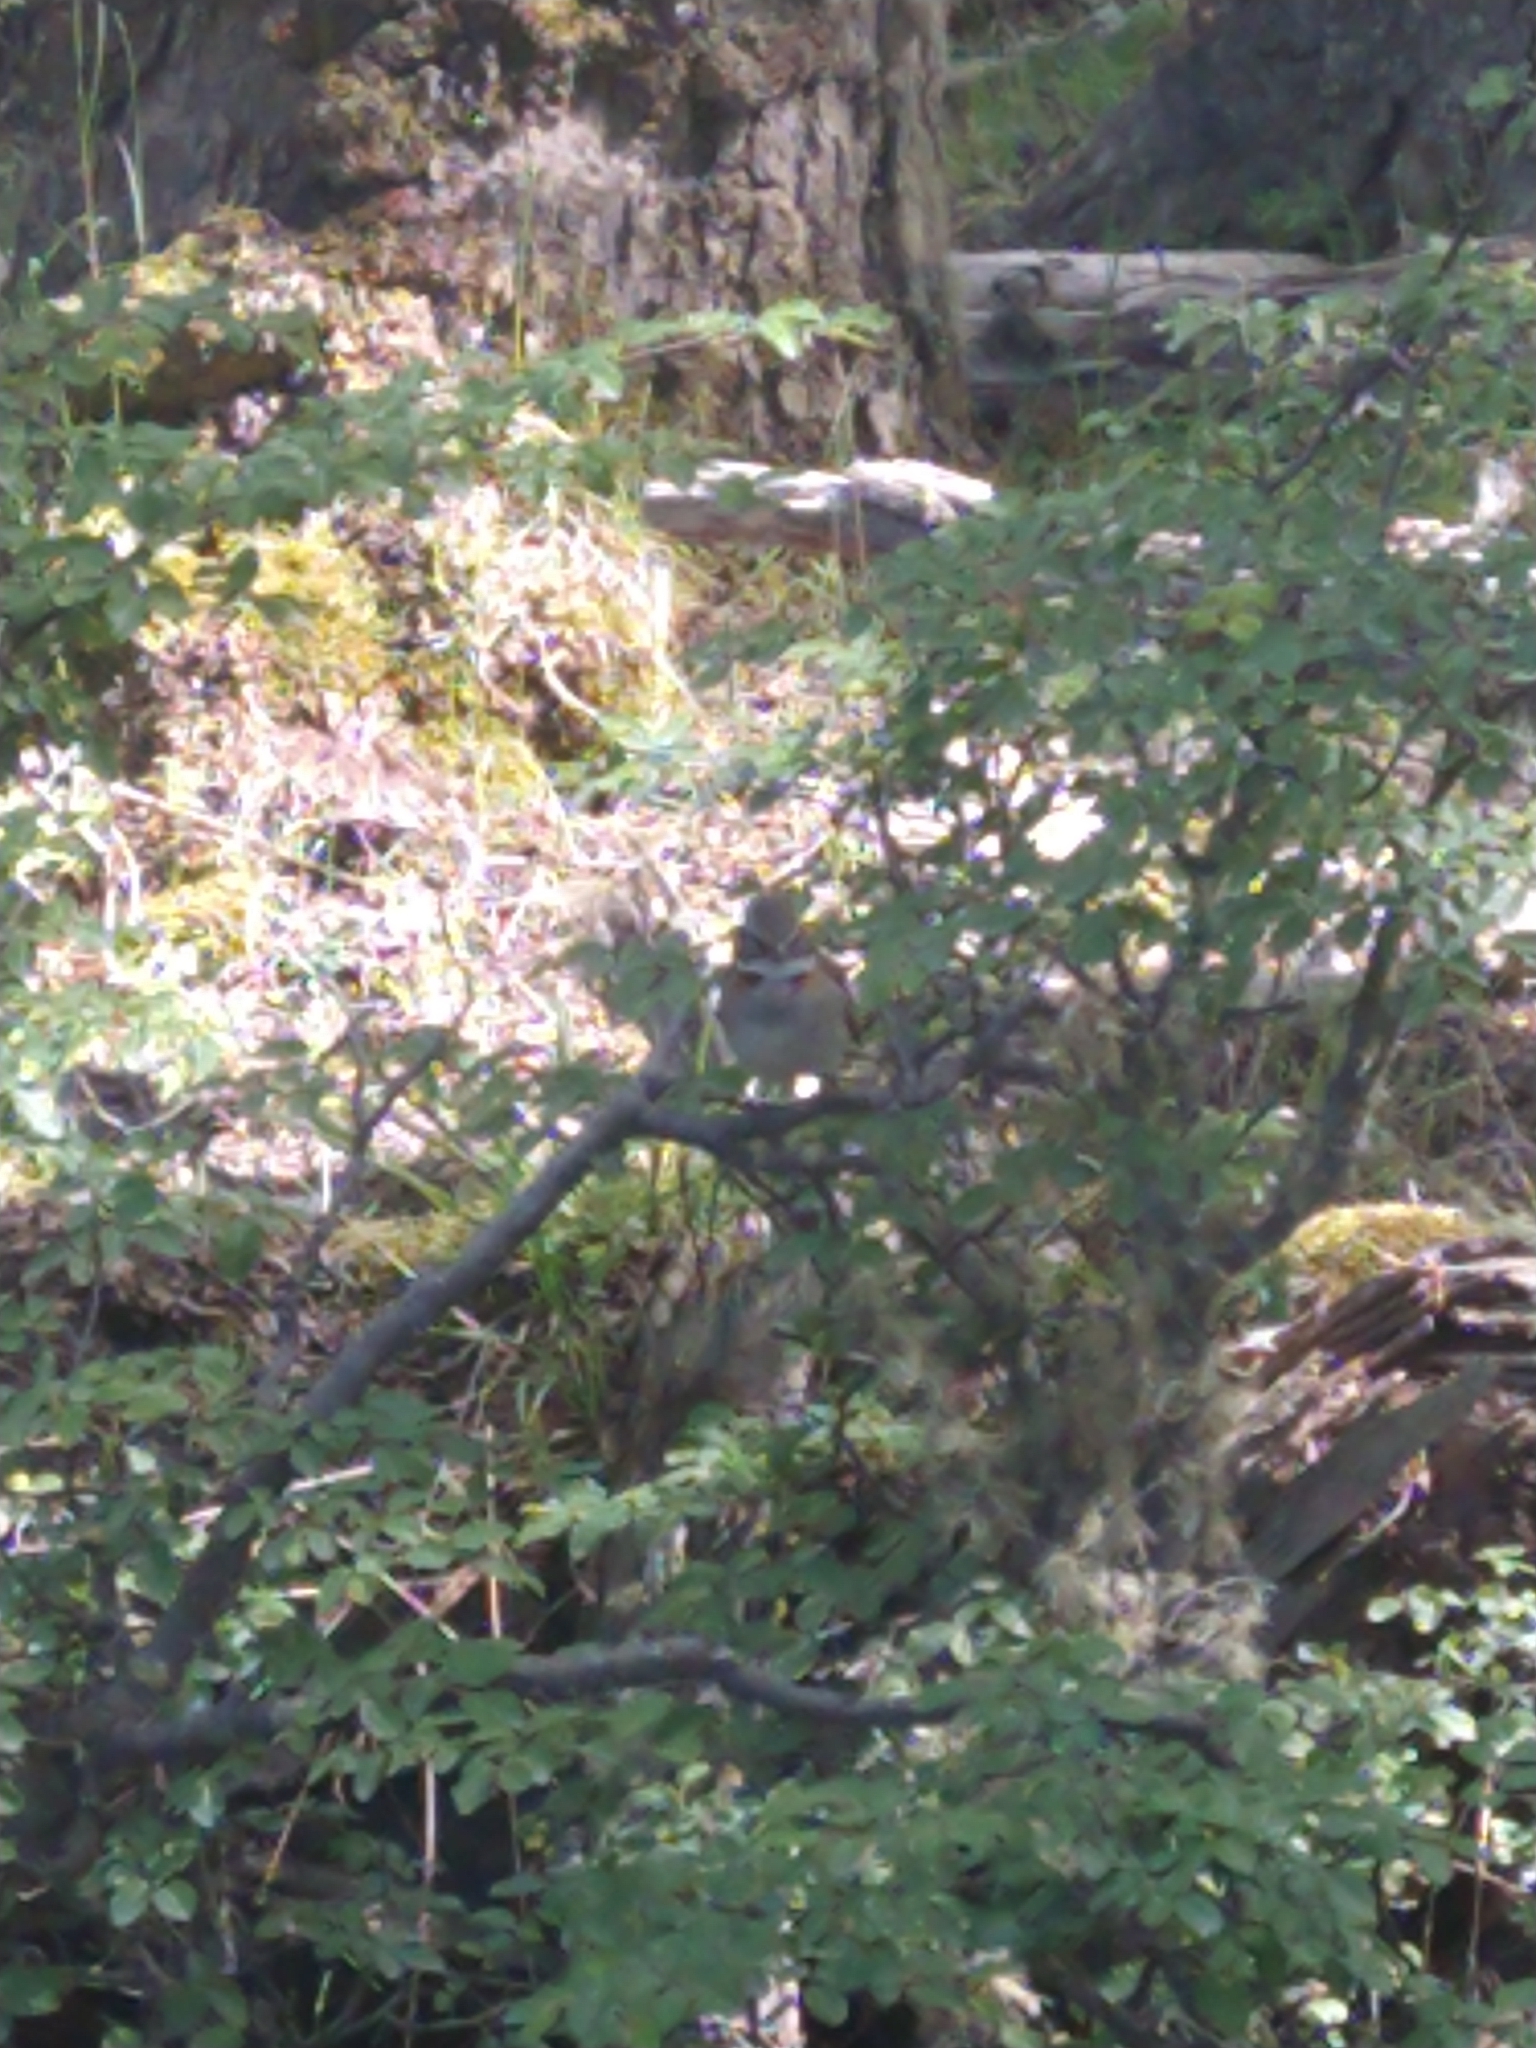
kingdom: Animalia
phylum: Chordata
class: Aves
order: Passeriformes
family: Passerellidae
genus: Zonotrichia
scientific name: Zonotrichia capensis
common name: Rufous-collared sparrow
